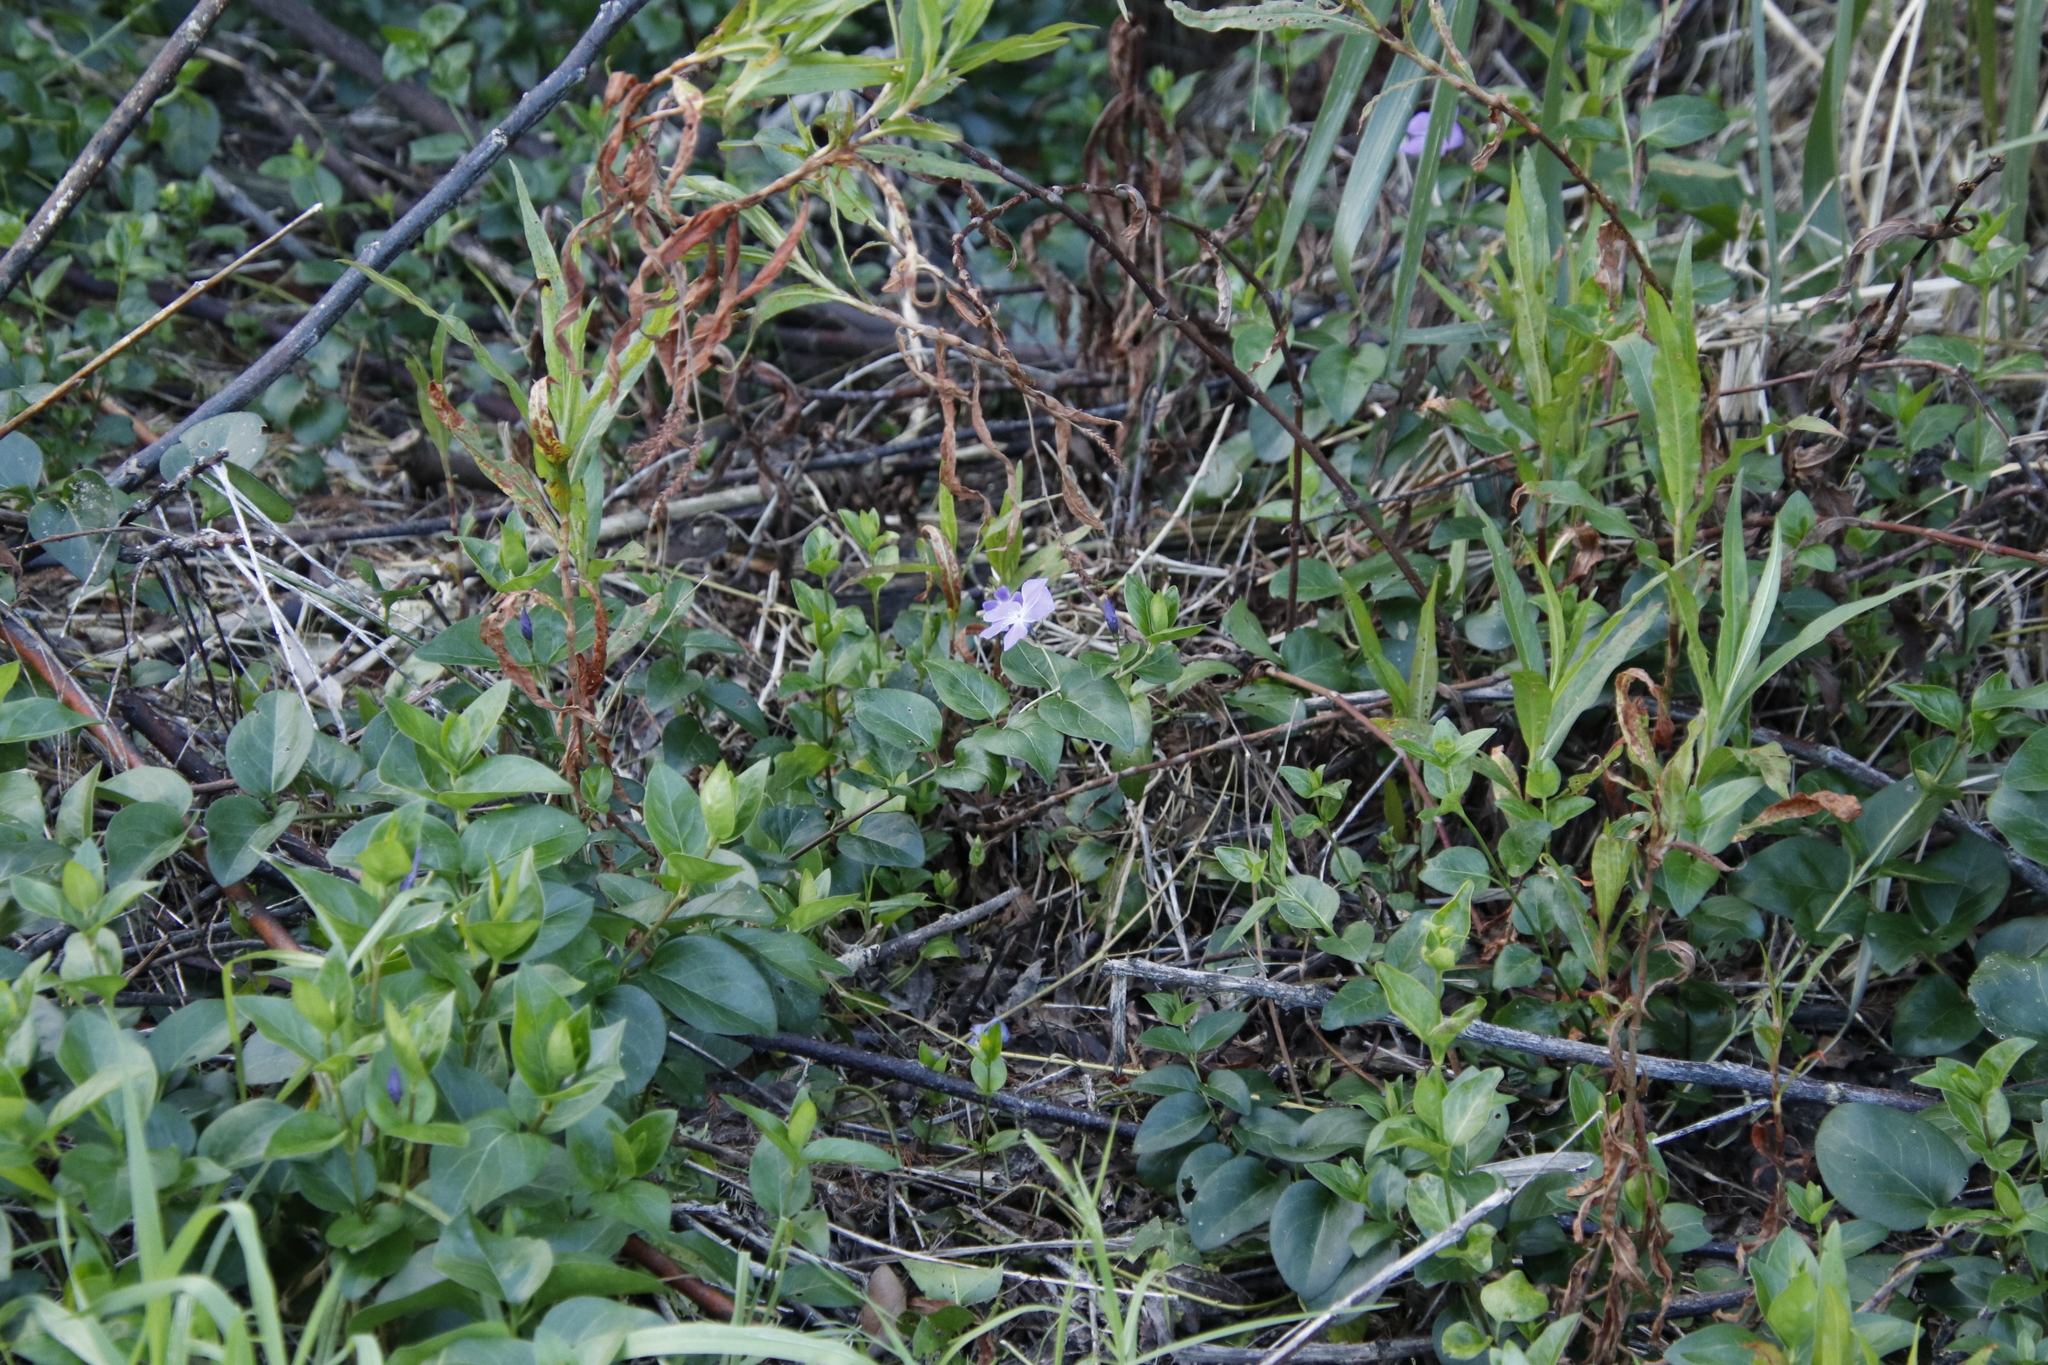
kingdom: Plantae
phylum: Tracheophyta
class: Magnoliopsida
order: Gentianales
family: Apocynaceae
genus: Vinca
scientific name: Vinca major
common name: Greater periwinkle
